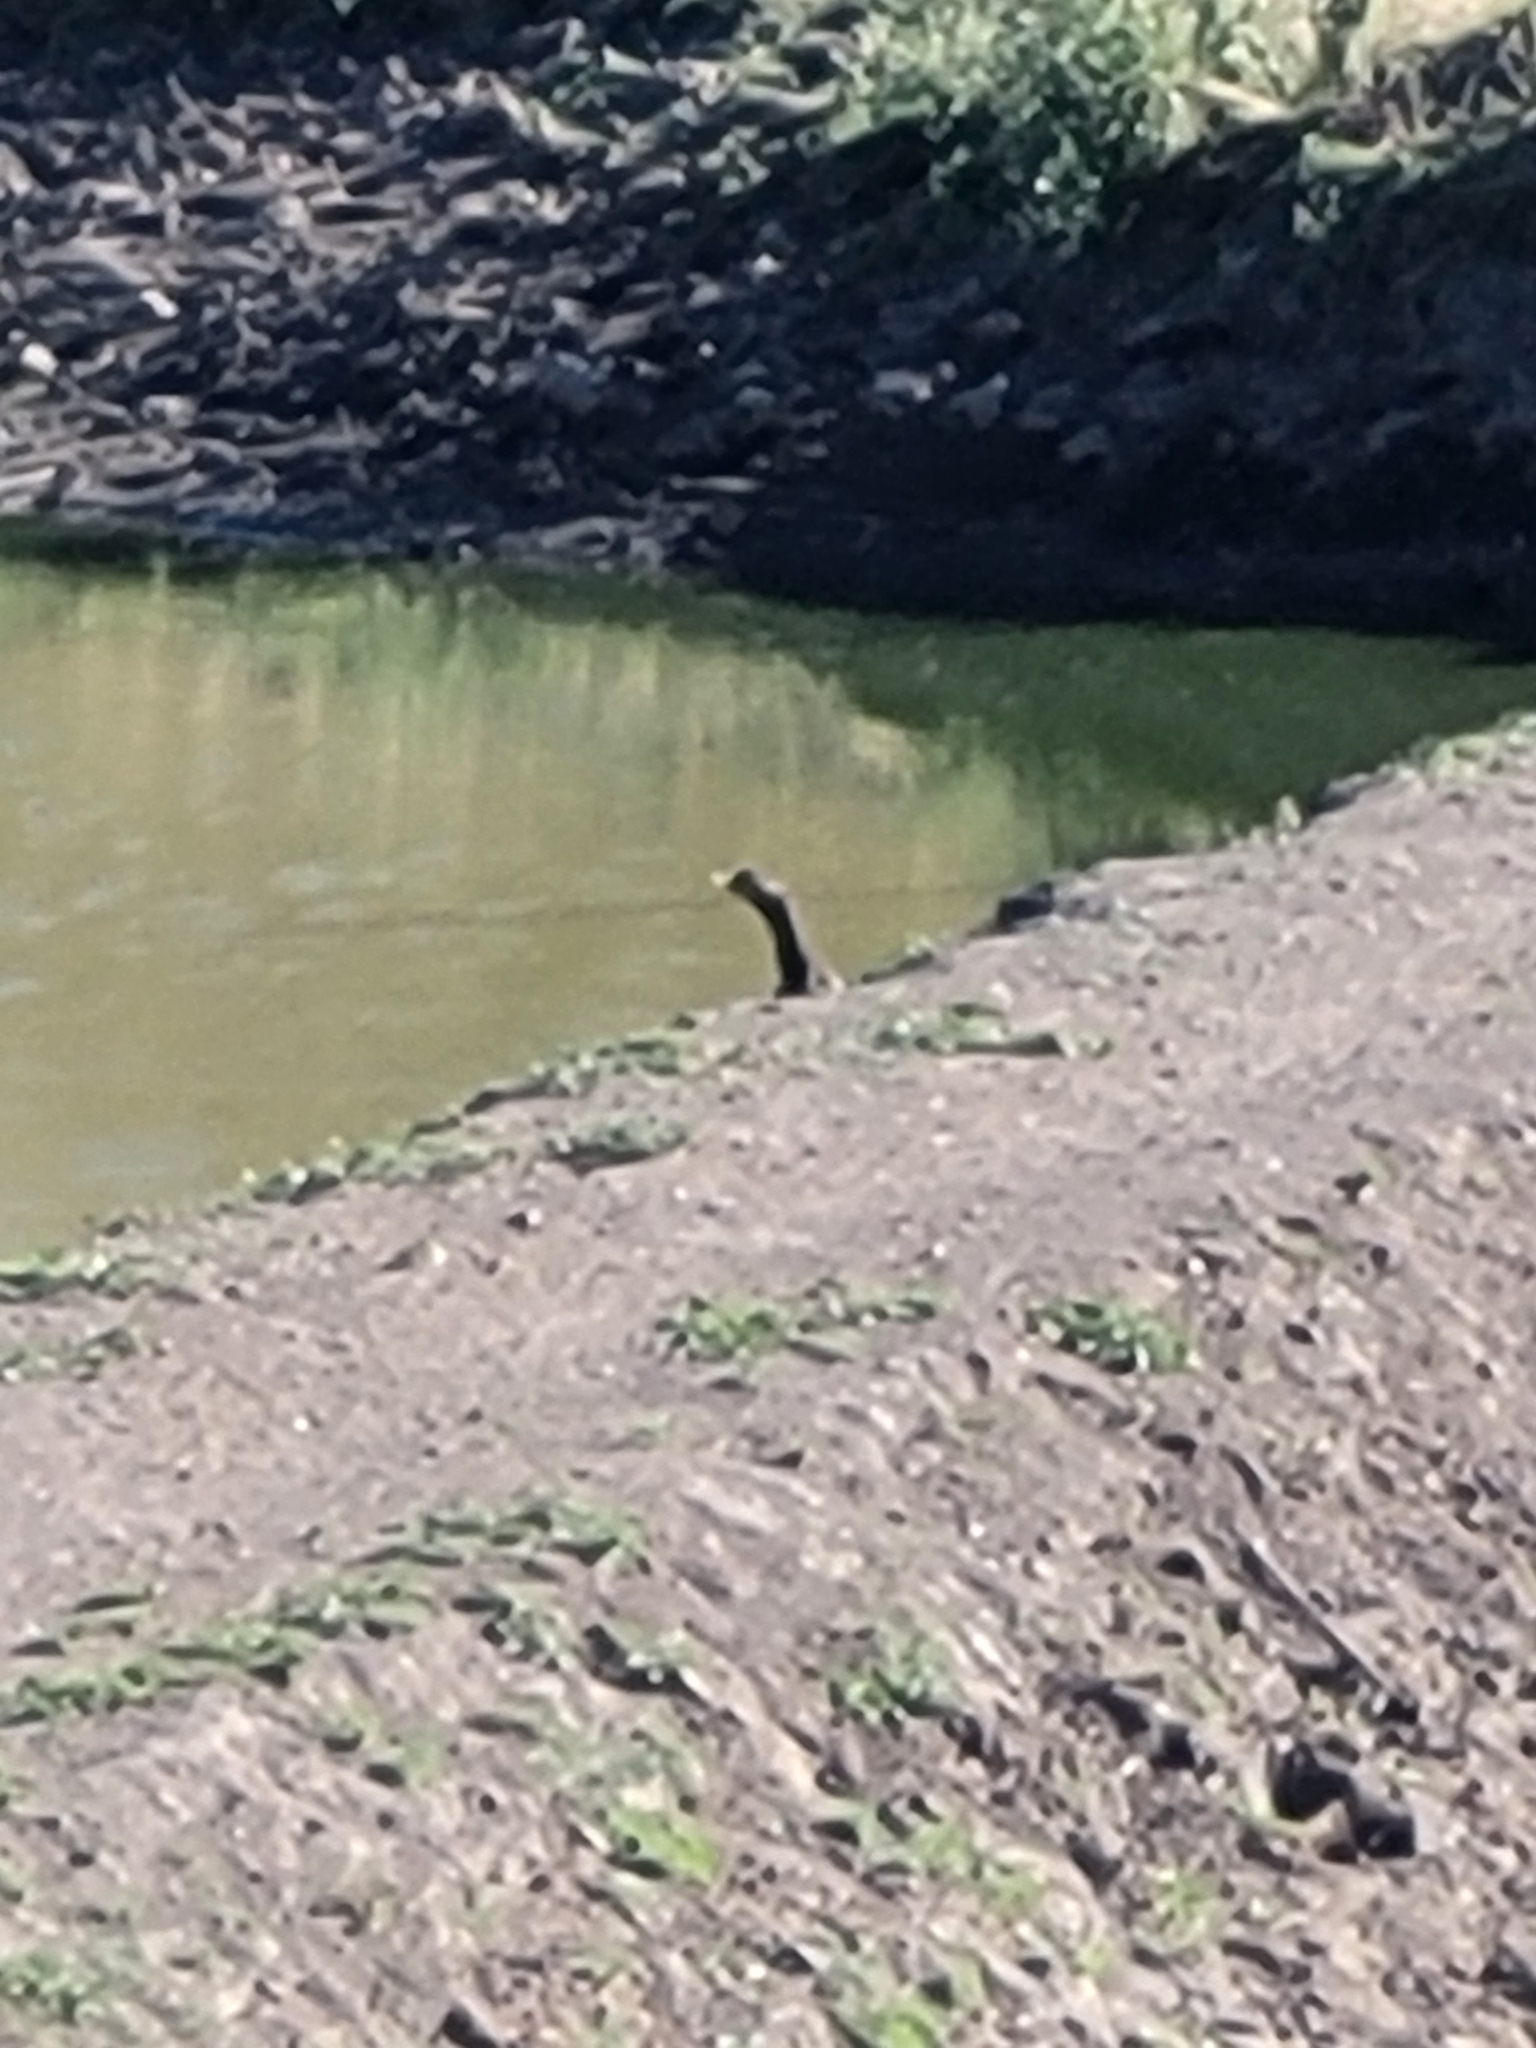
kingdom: Animalia
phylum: Chordata
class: Aves
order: Suliformes
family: Phalacrocoracidae
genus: Phalacrocorax
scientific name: Phalacrocorax auritus
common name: Double-crested cormorant
